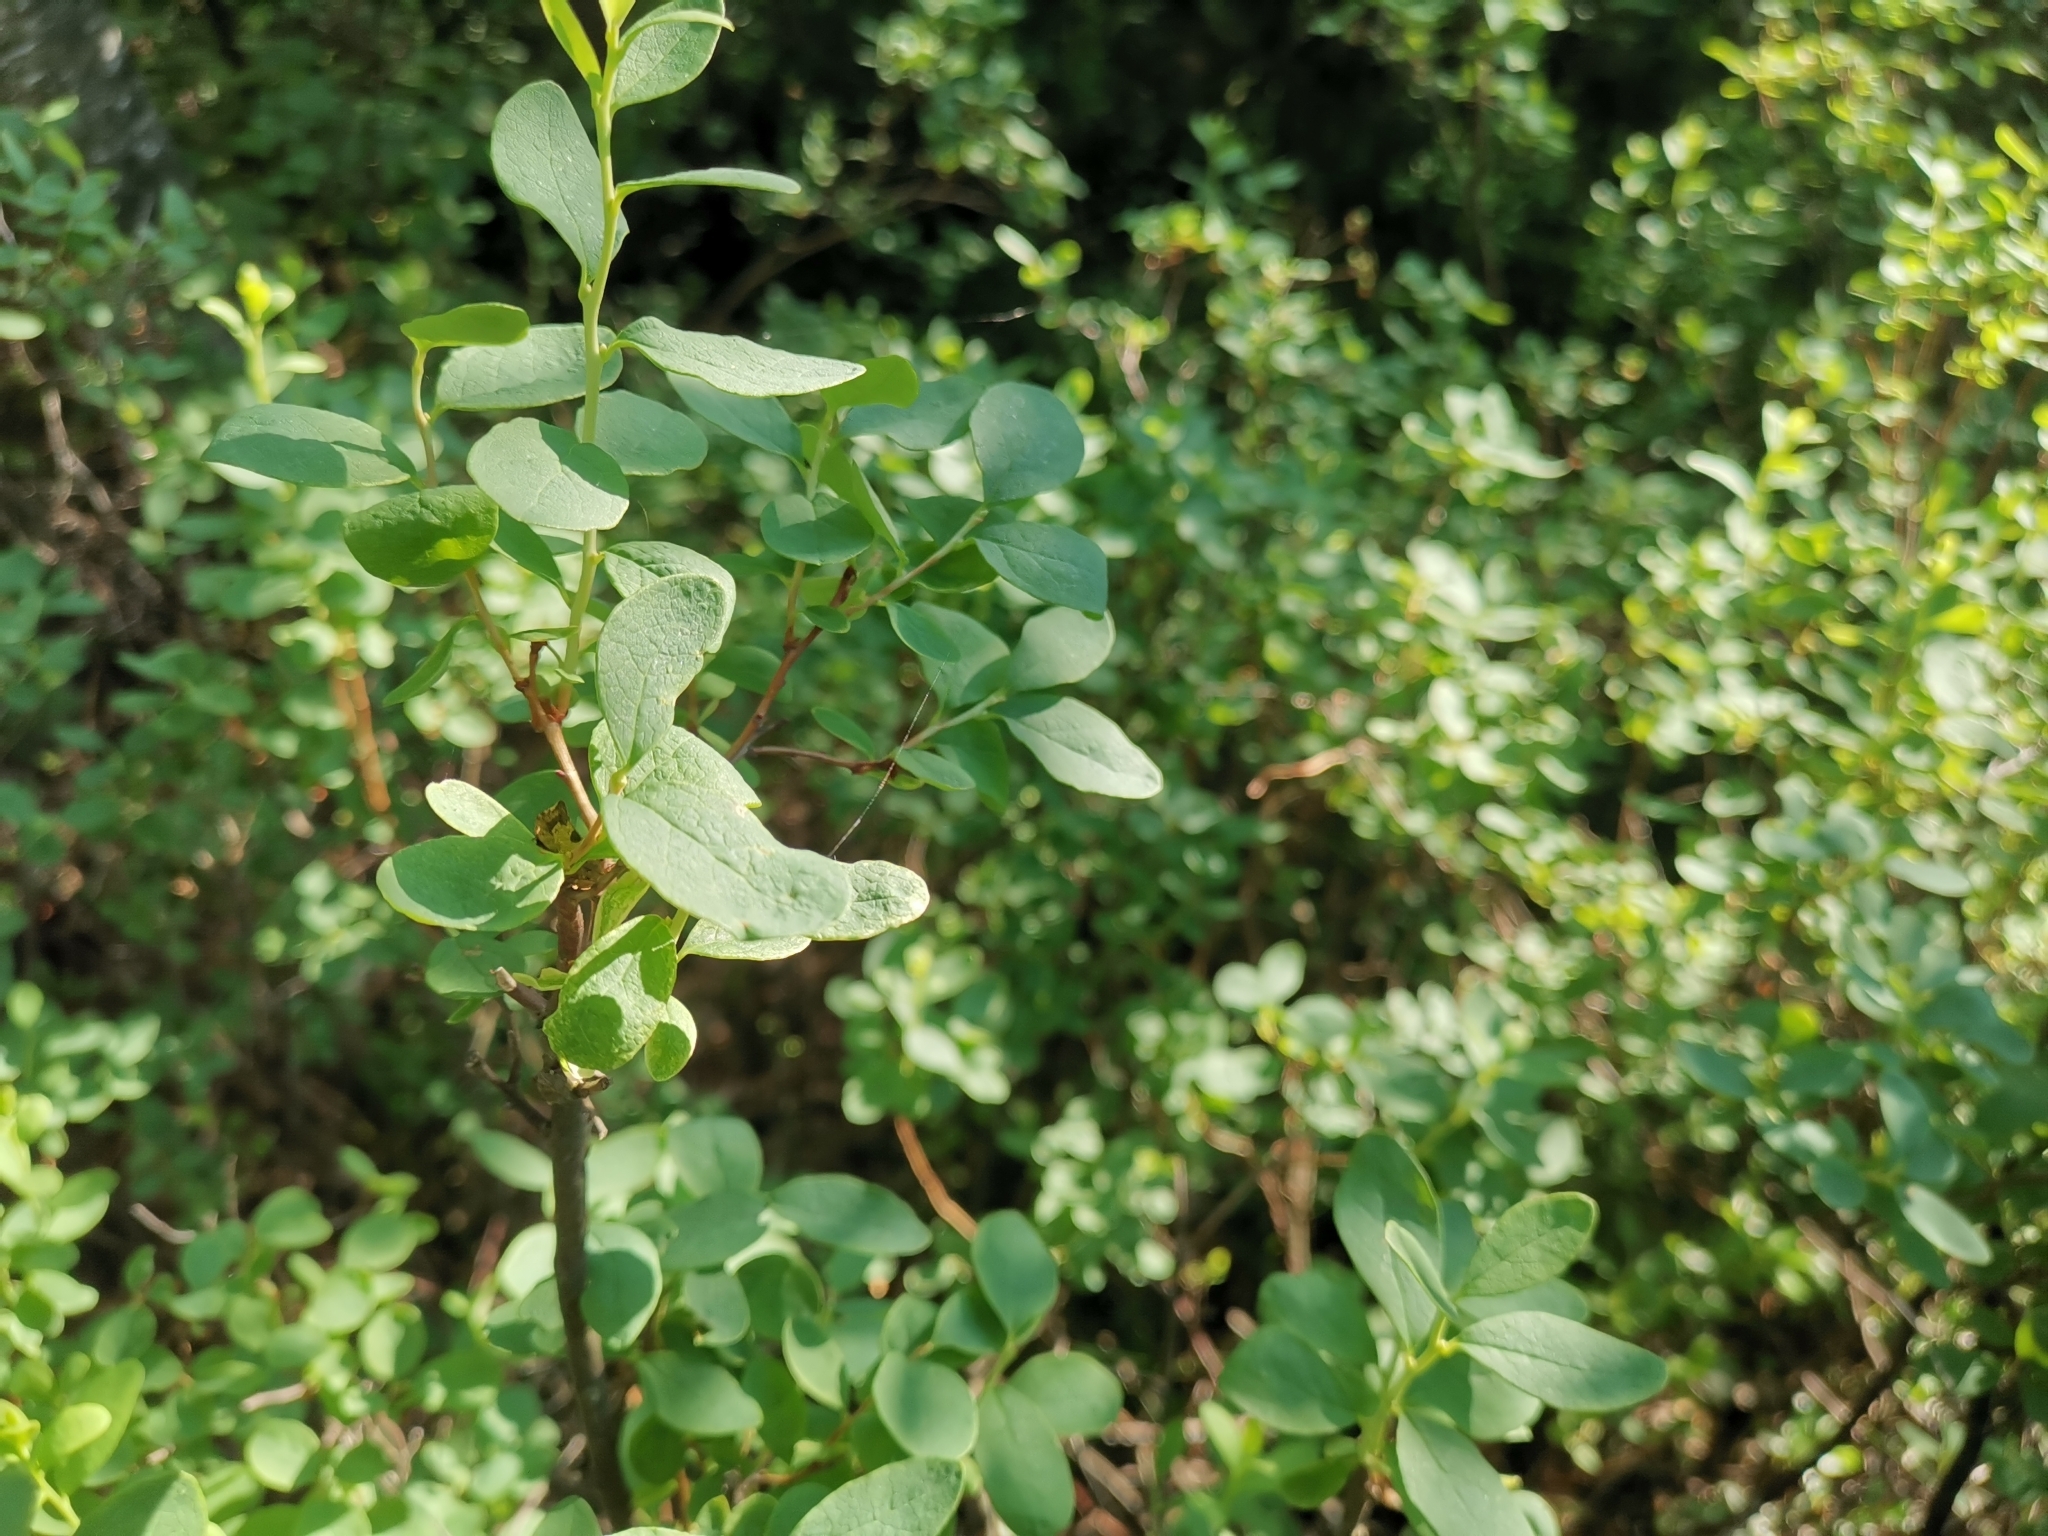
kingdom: Plantae
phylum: Tracheophyta
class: Magnoliopsida
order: Ericales
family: Ericaceae
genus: Vaccinium
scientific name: Vaccinium uliginosum
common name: Bog bilberry
